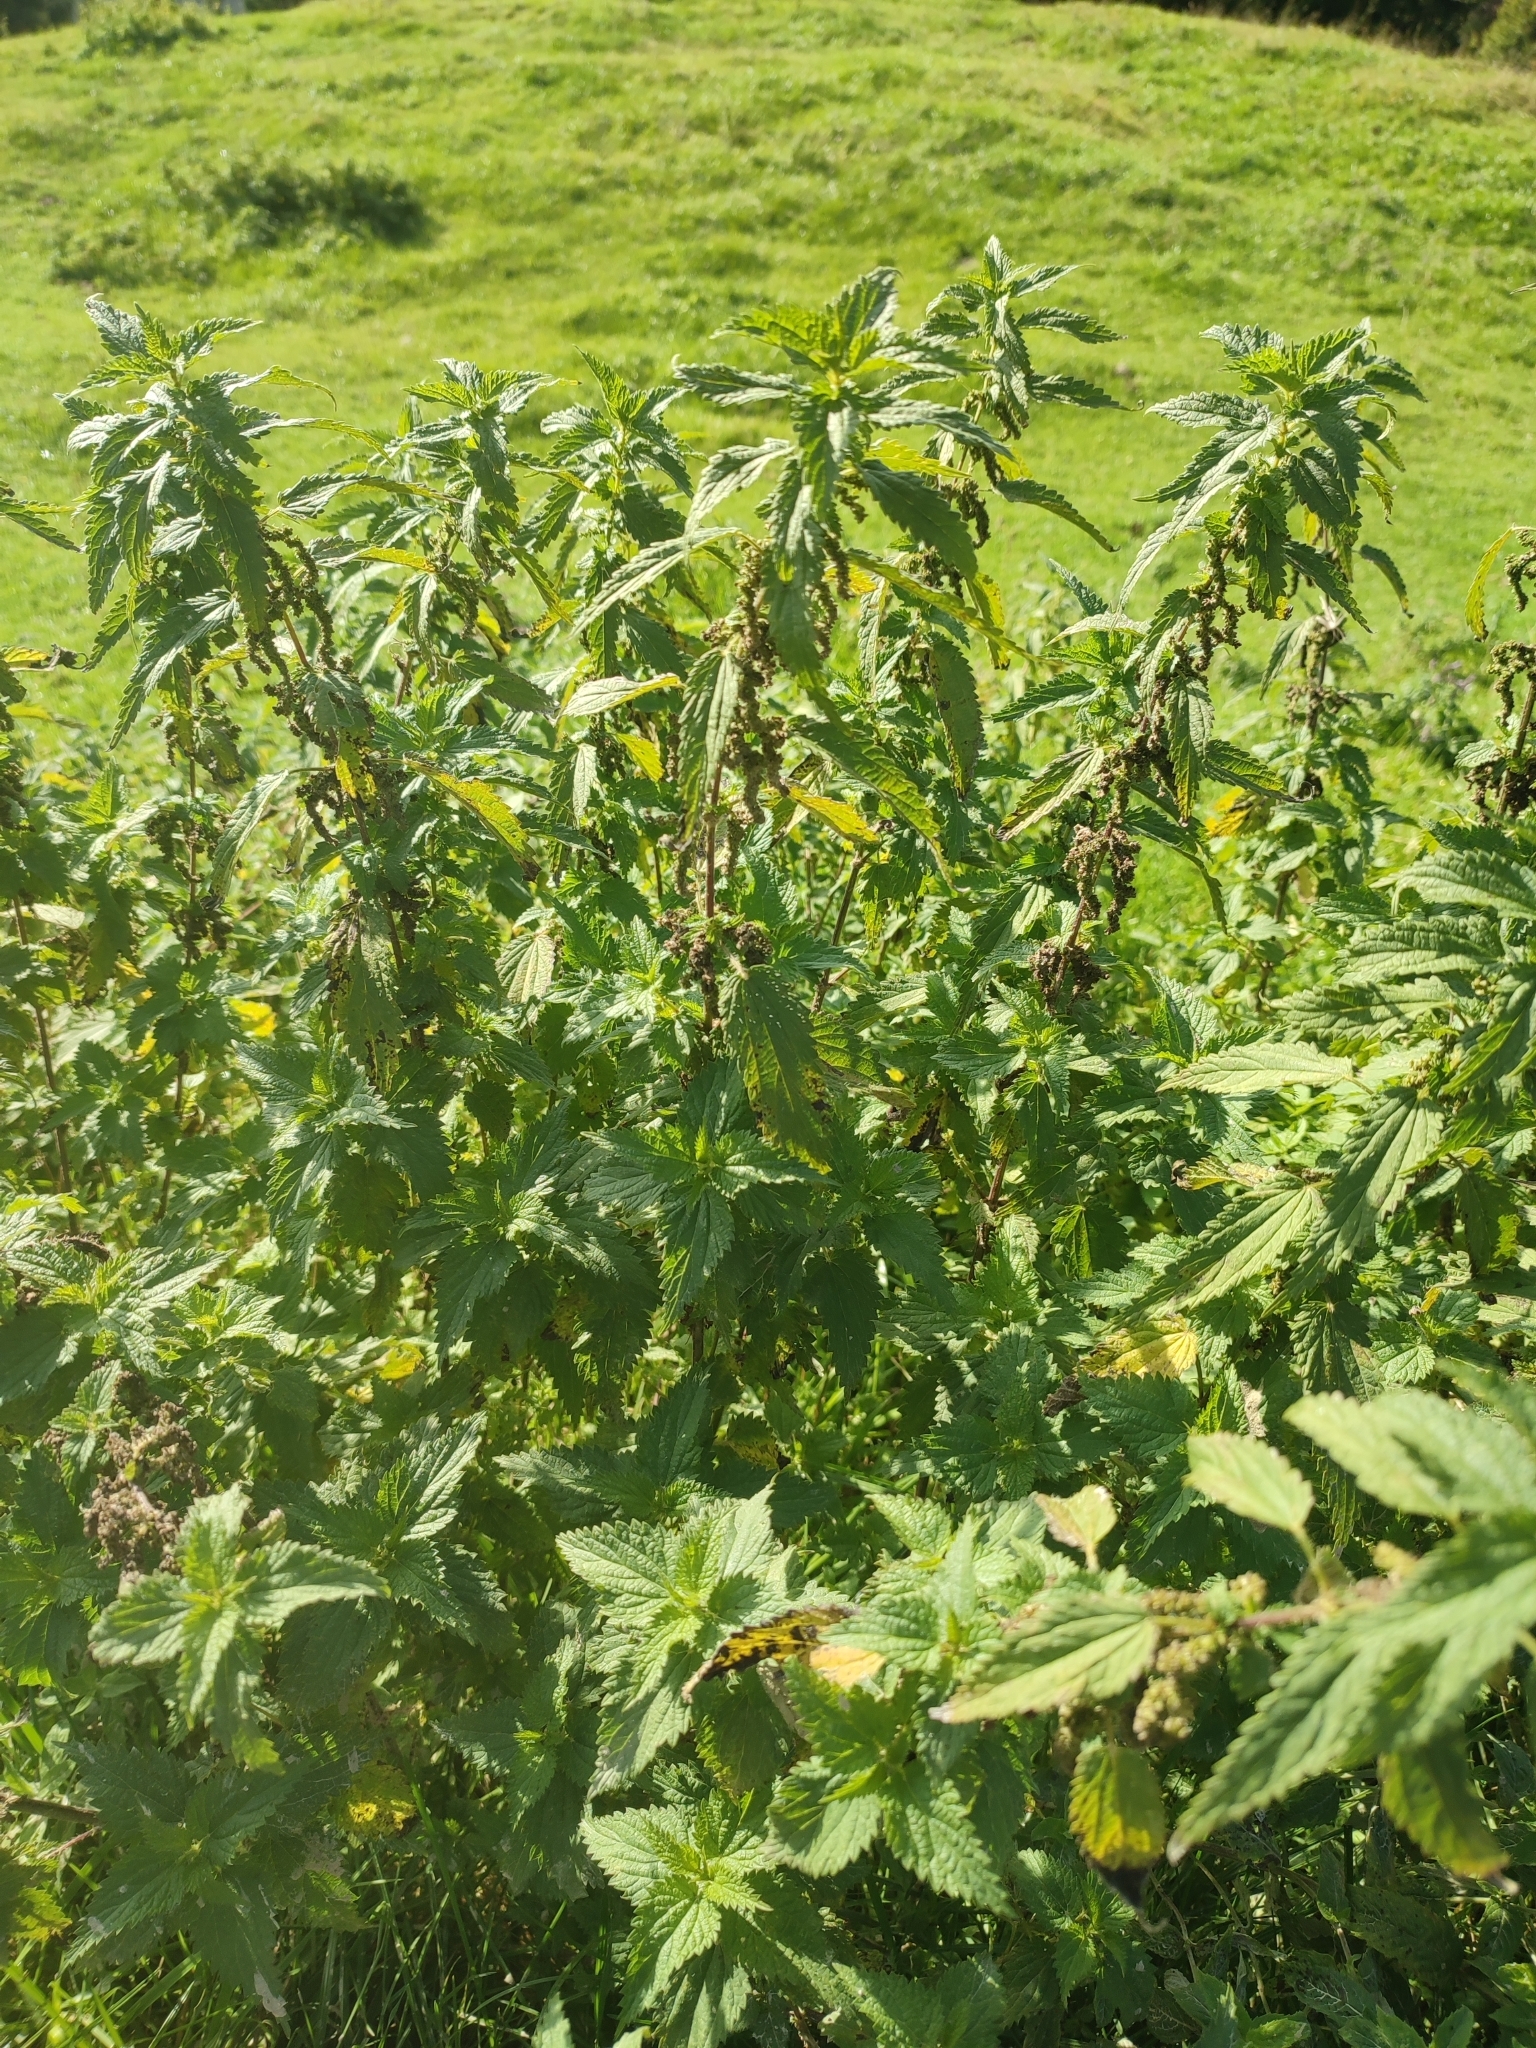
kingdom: Plantae
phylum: Tracheophyta
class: Magnoliopsida
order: Rosales
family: Urticaceae
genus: Urtica
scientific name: Urtica dioica
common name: Common nettle
